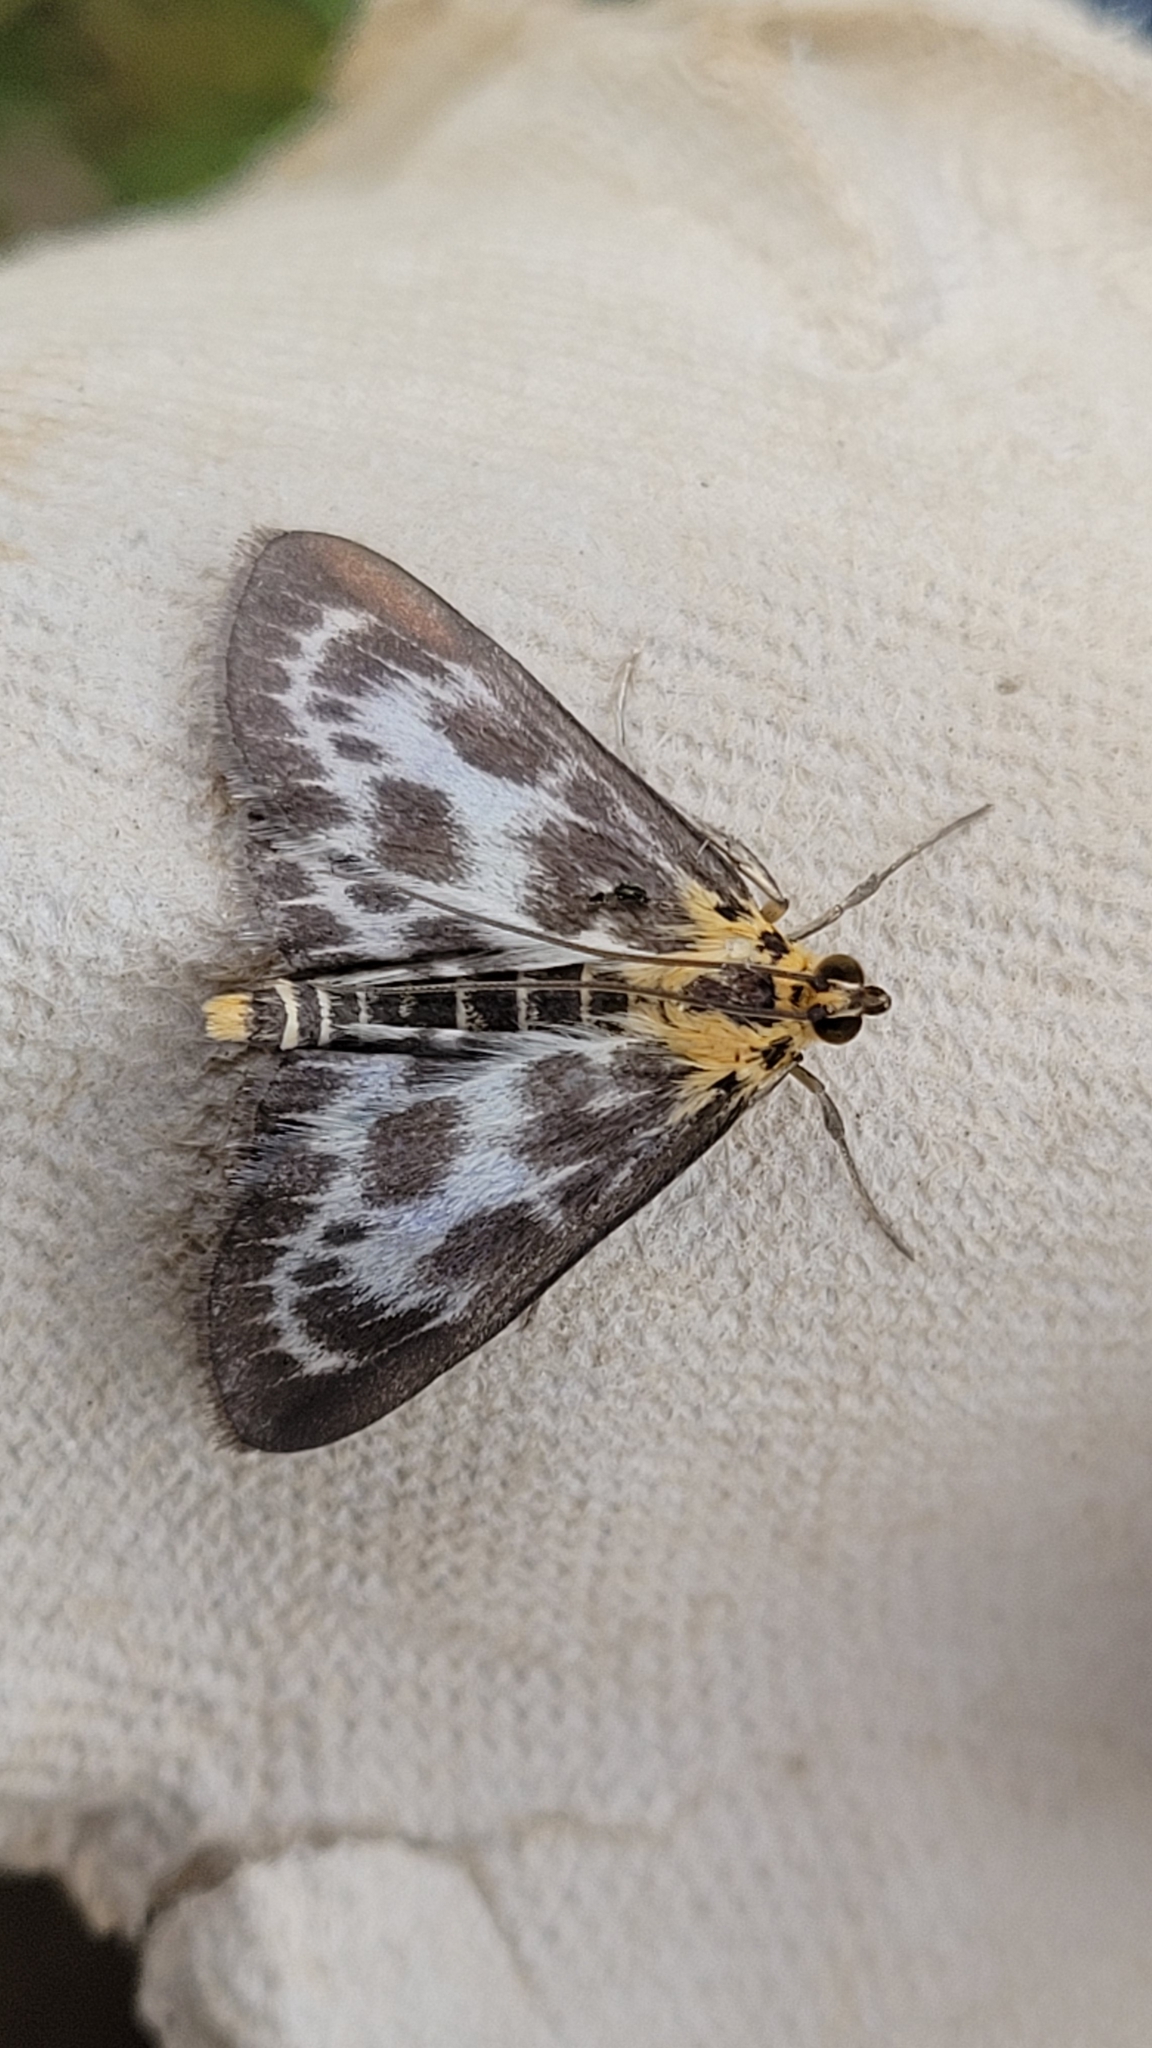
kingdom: Animalia
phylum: Arthropoda
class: Insecta
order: Lepidoptera
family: Crambidae
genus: Anania
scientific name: Anania hortulata
